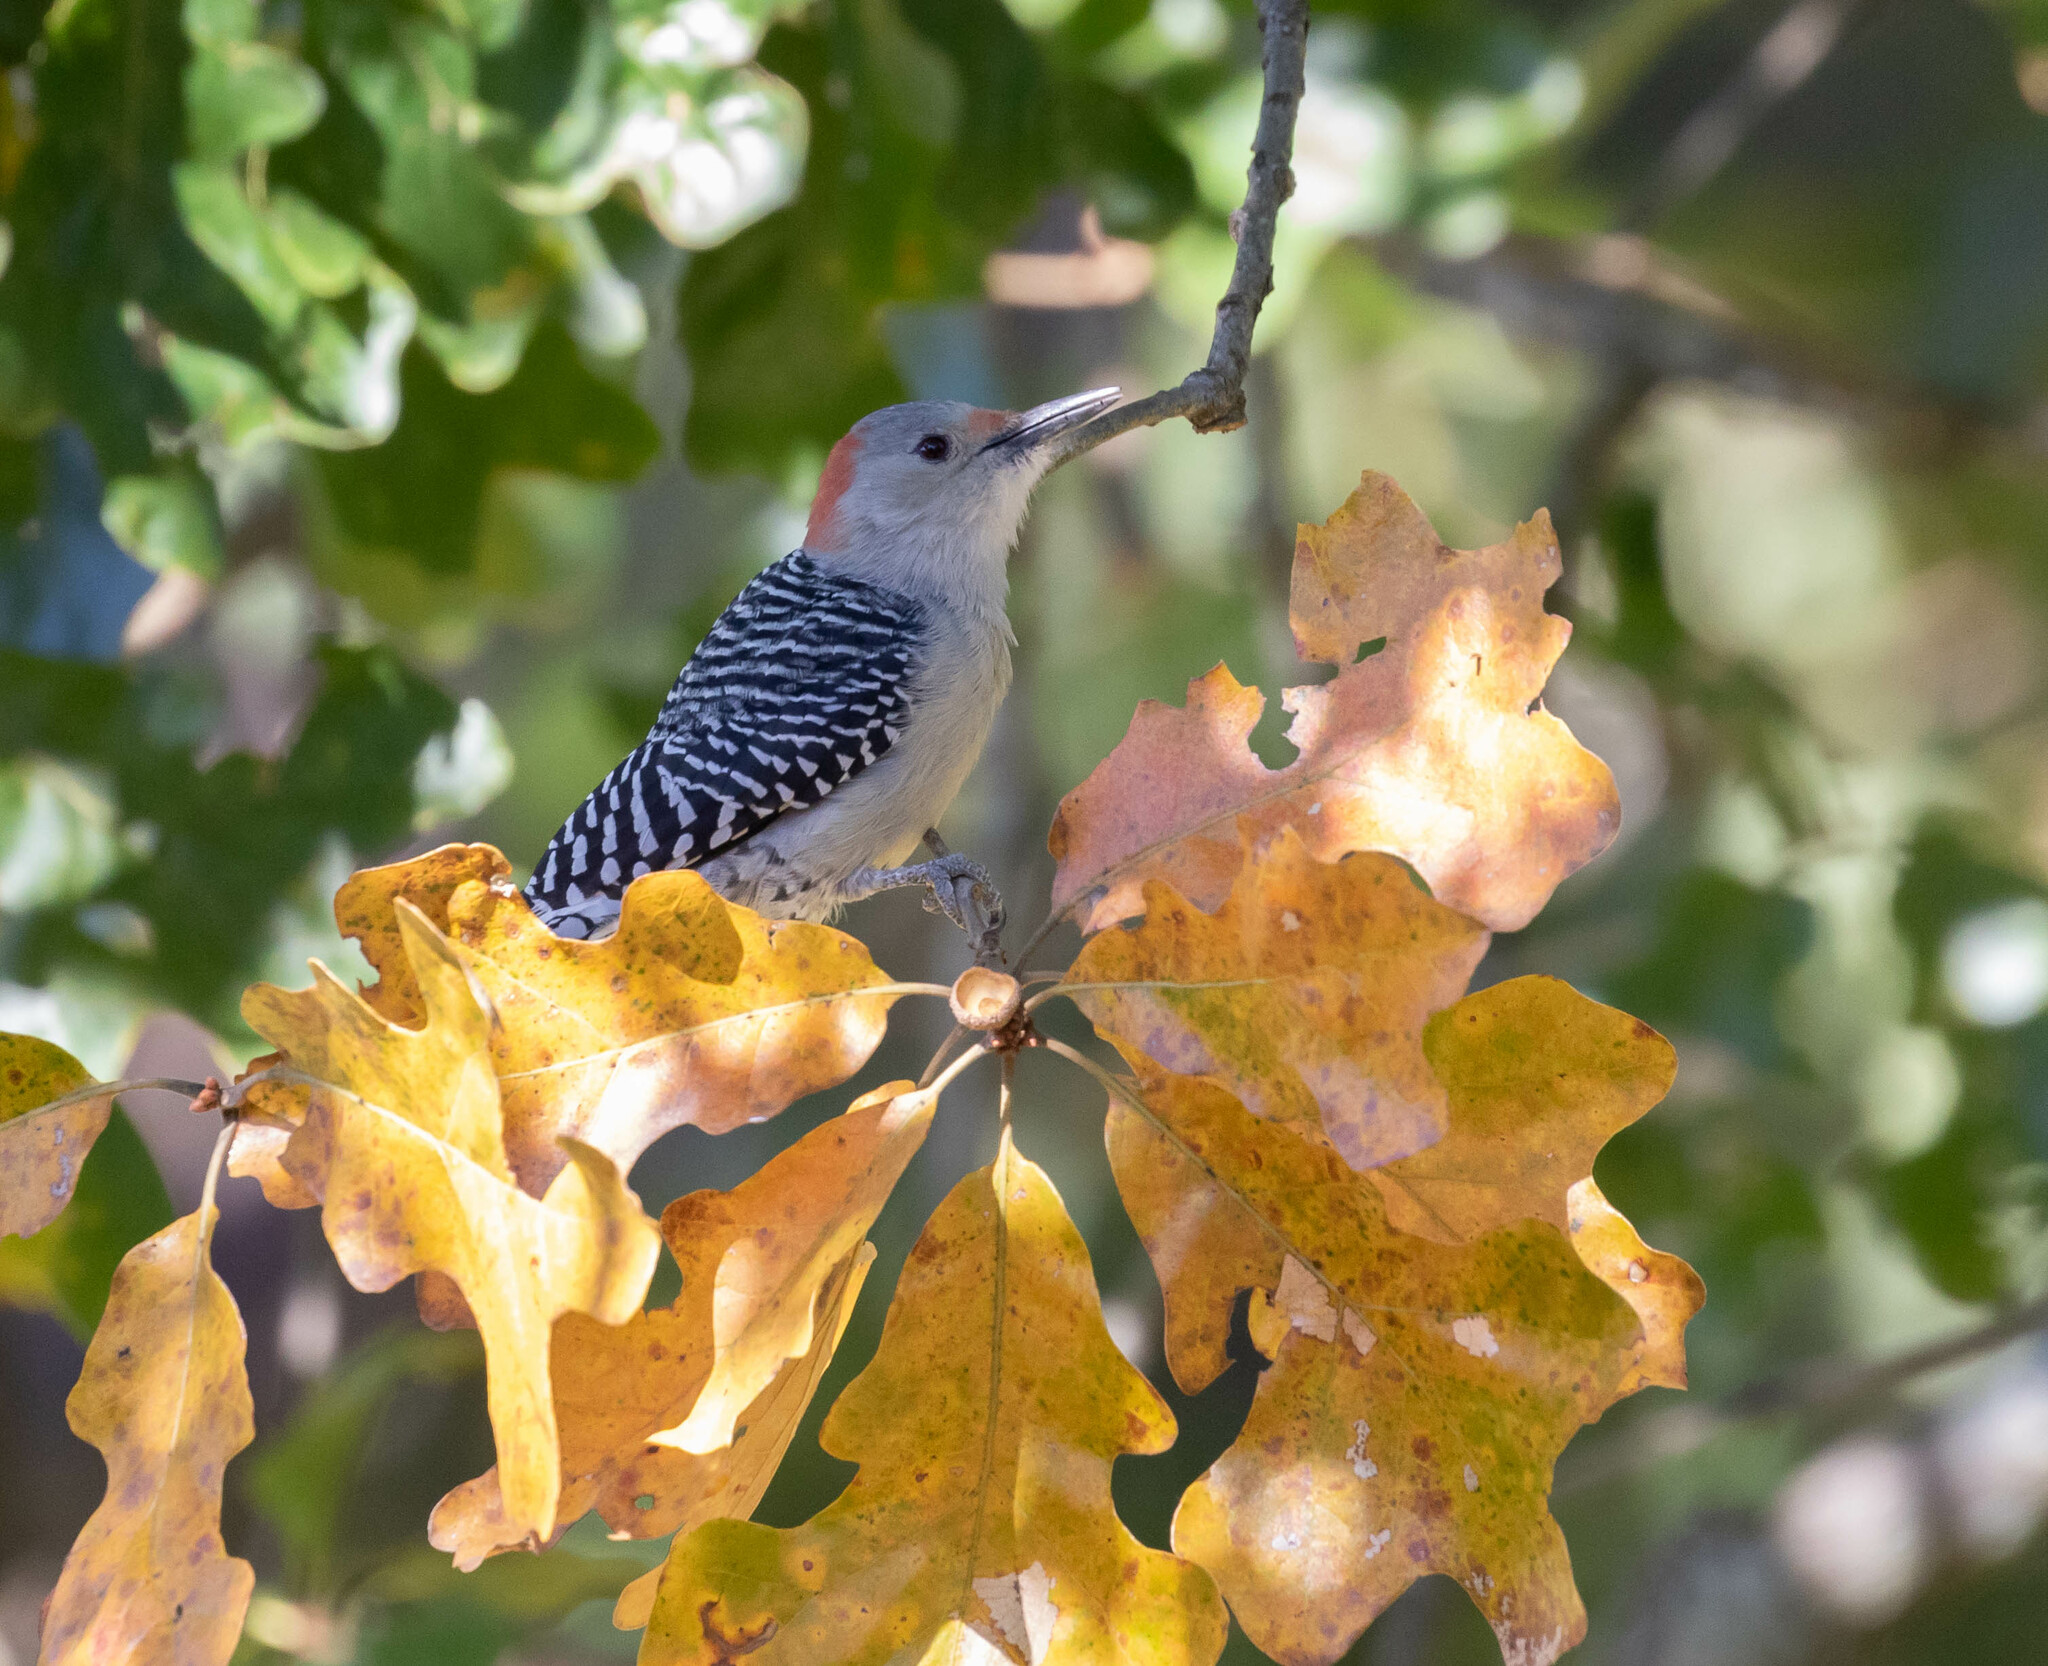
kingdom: Animalia
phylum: Chordata
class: Aves
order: Piciformes
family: Picidae
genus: Melanerpes
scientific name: Melanerpes carolinus
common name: Red-bellied woodpecker
